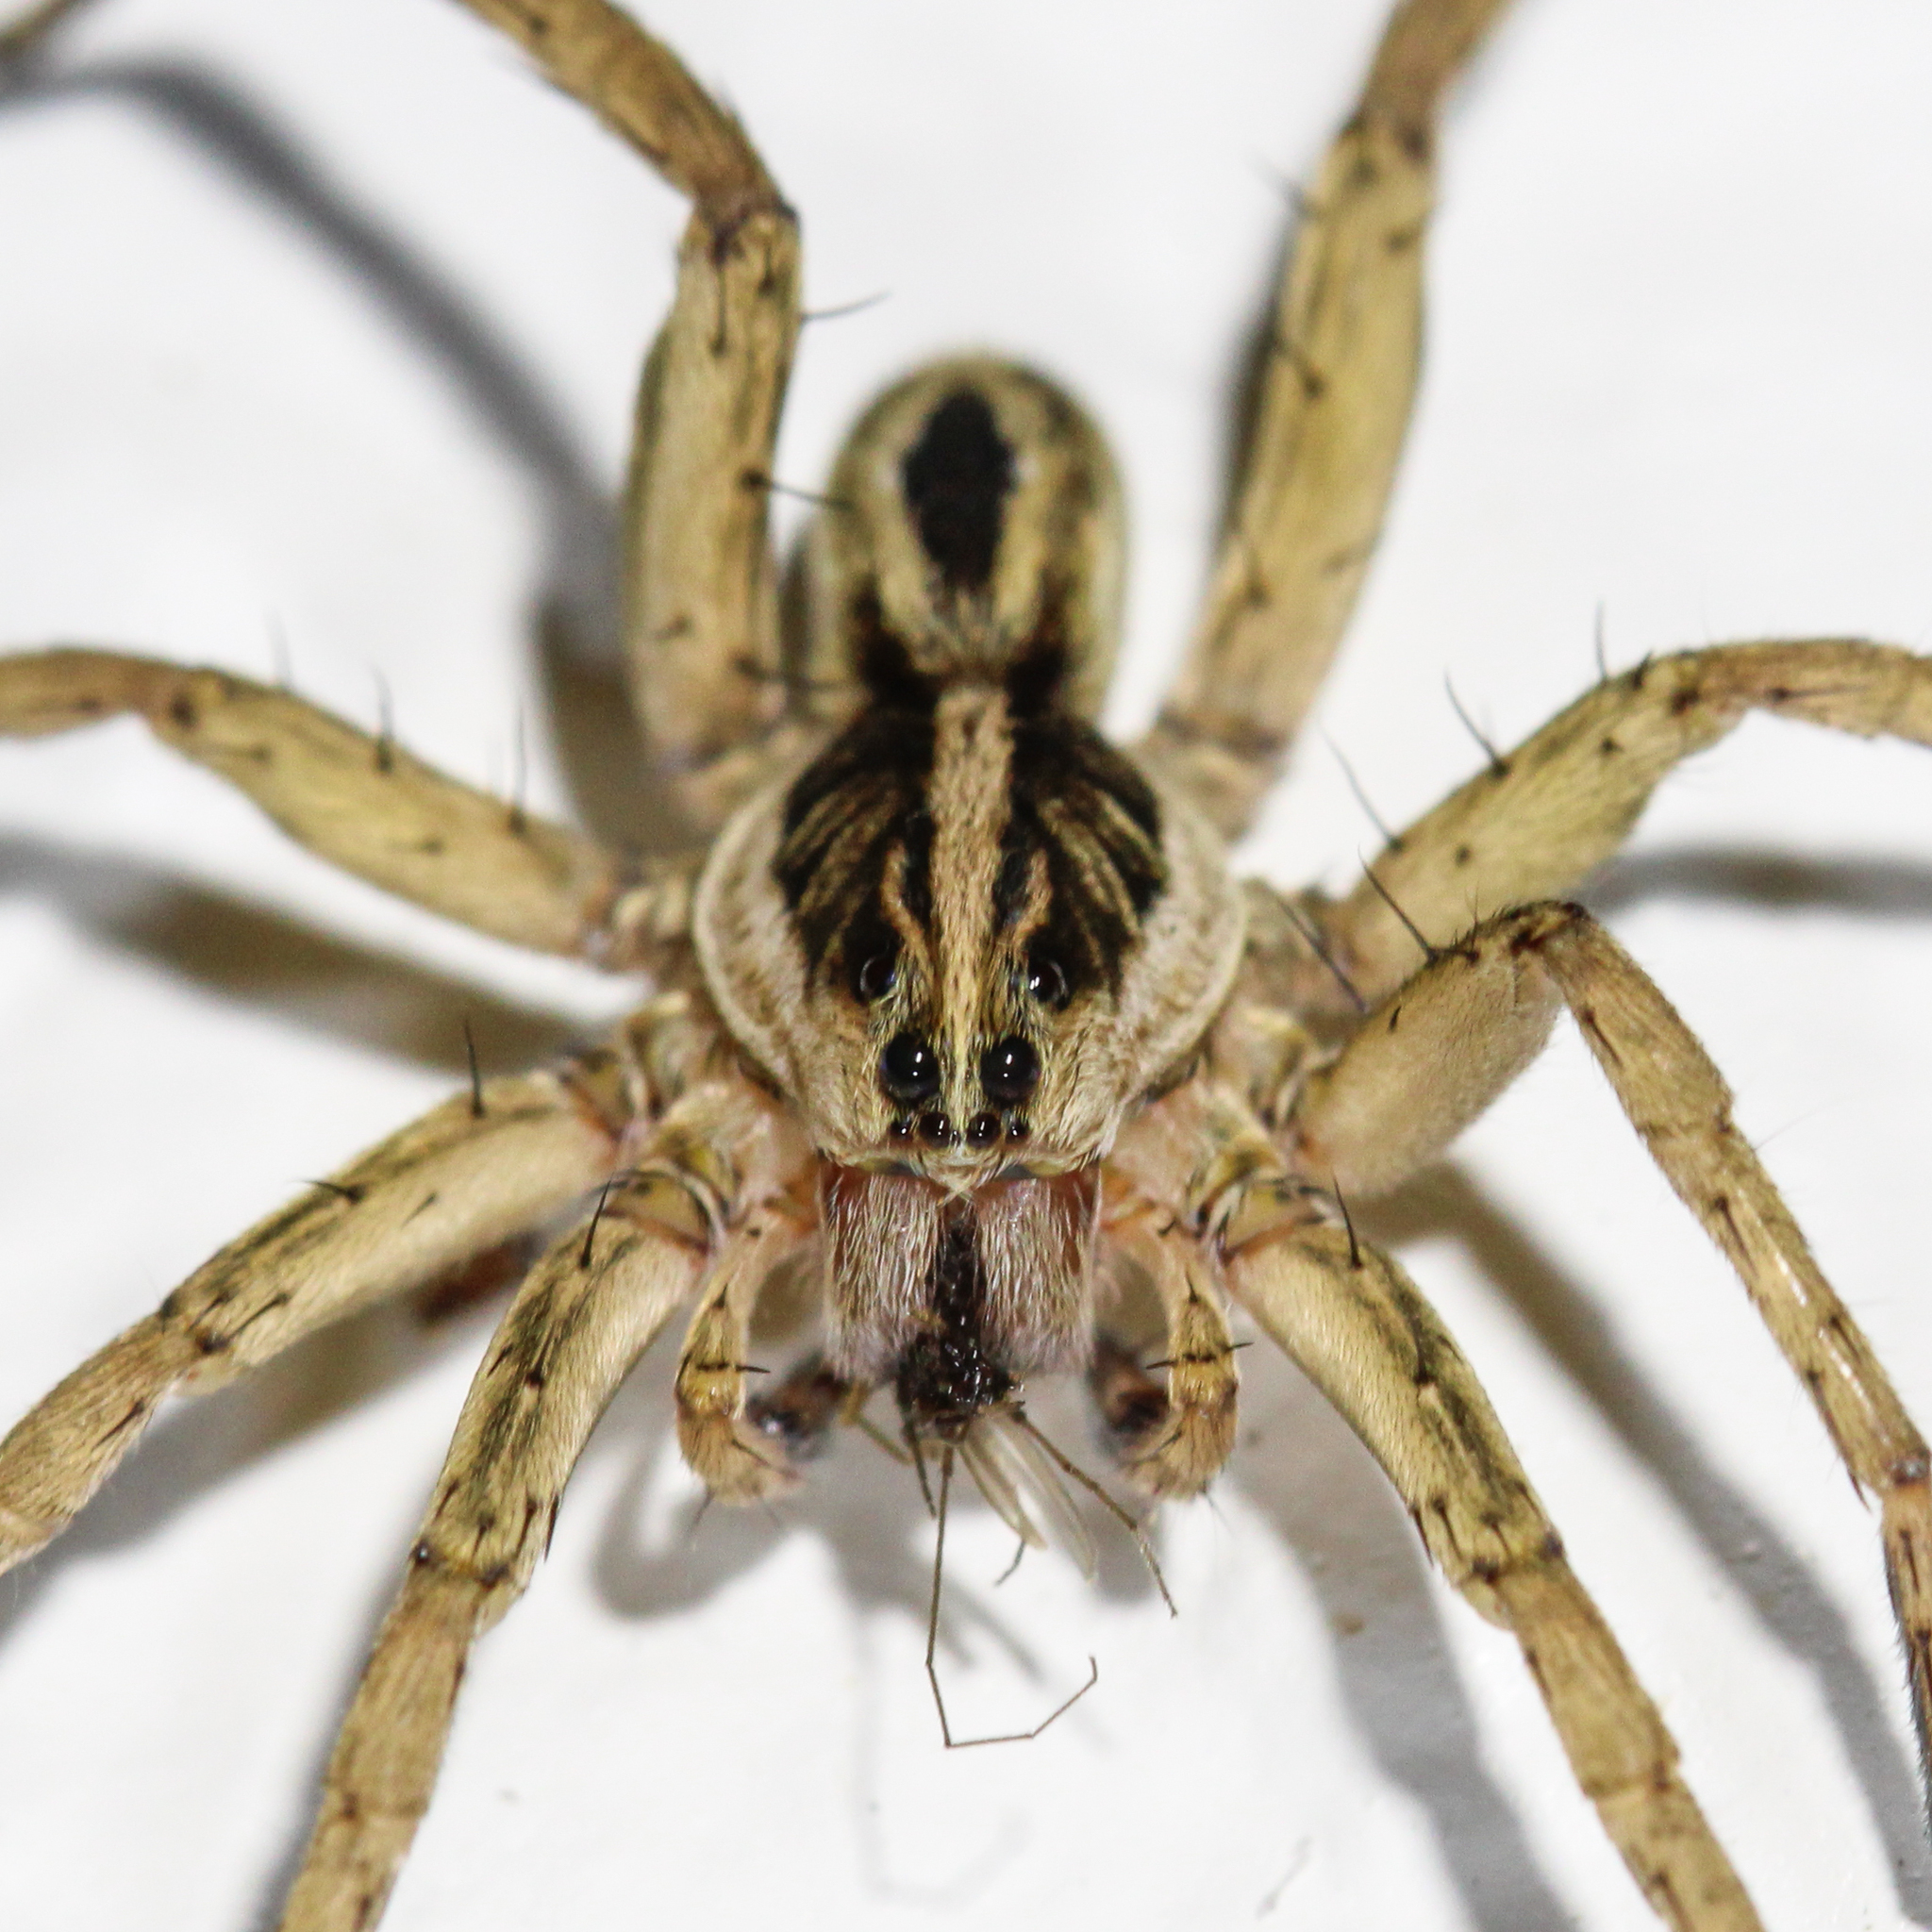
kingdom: Animalia
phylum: Arthropoda
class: Arachnida
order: Araneae
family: Lycosidae
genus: Tigrosa
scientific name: Tigrosa annexa
